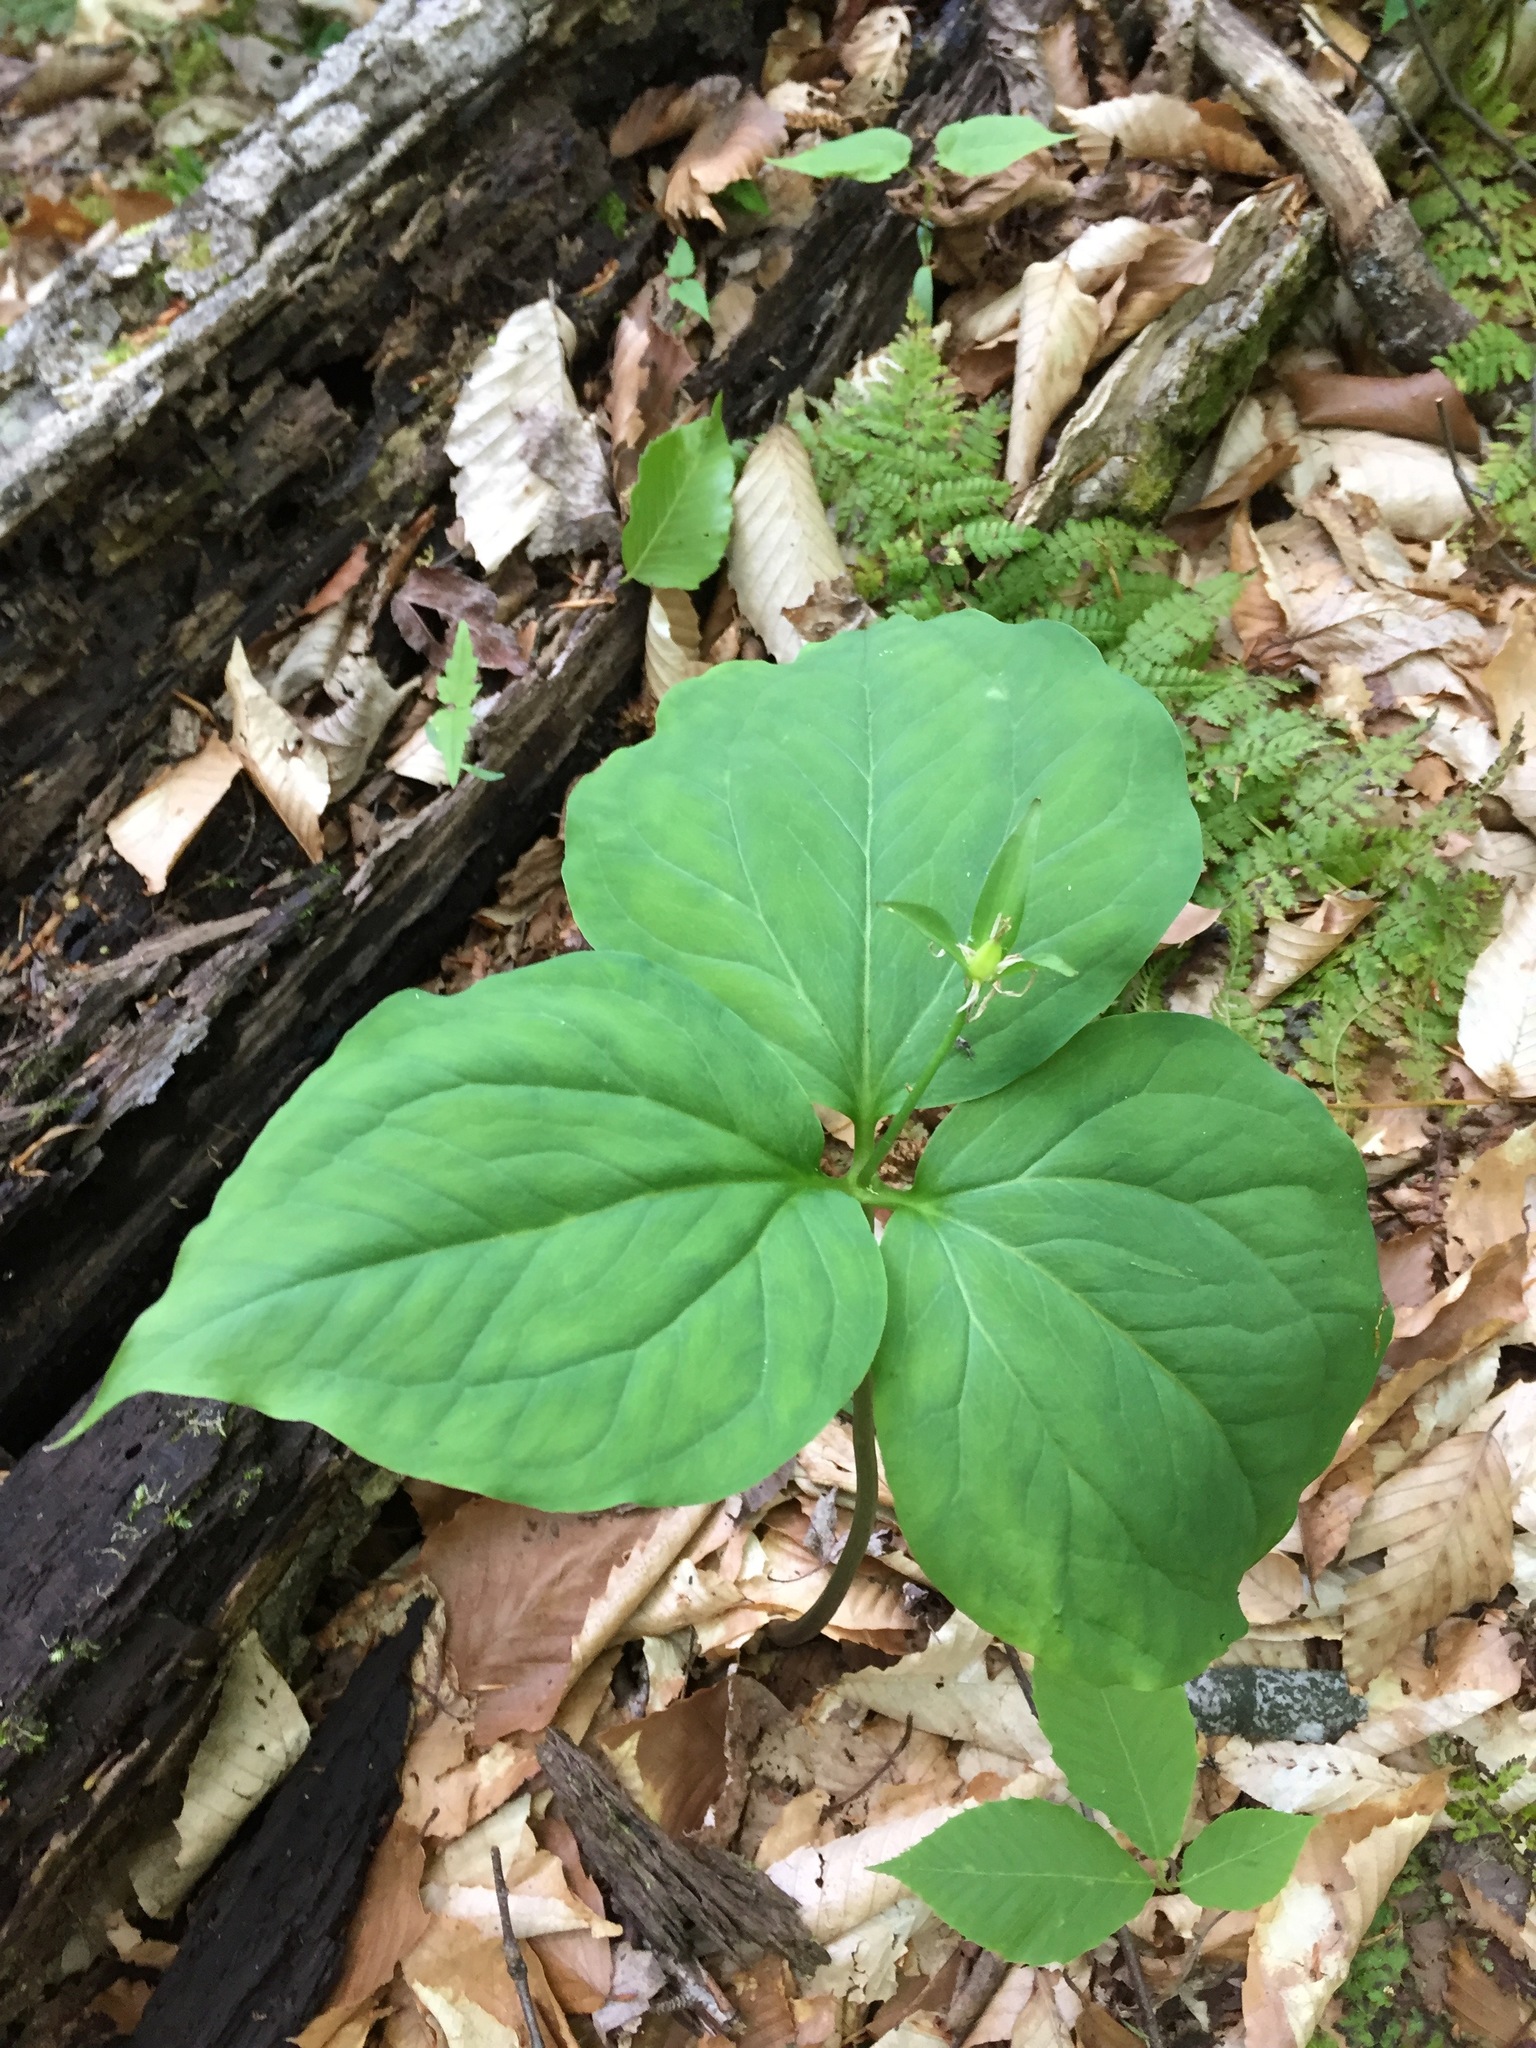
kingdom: Plantae
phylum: Tracheophyta
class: Liliopsida
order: Liliales
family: Melanthiaceae
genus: Trillium
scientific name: Trillium undulatum
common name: Paint trillium
